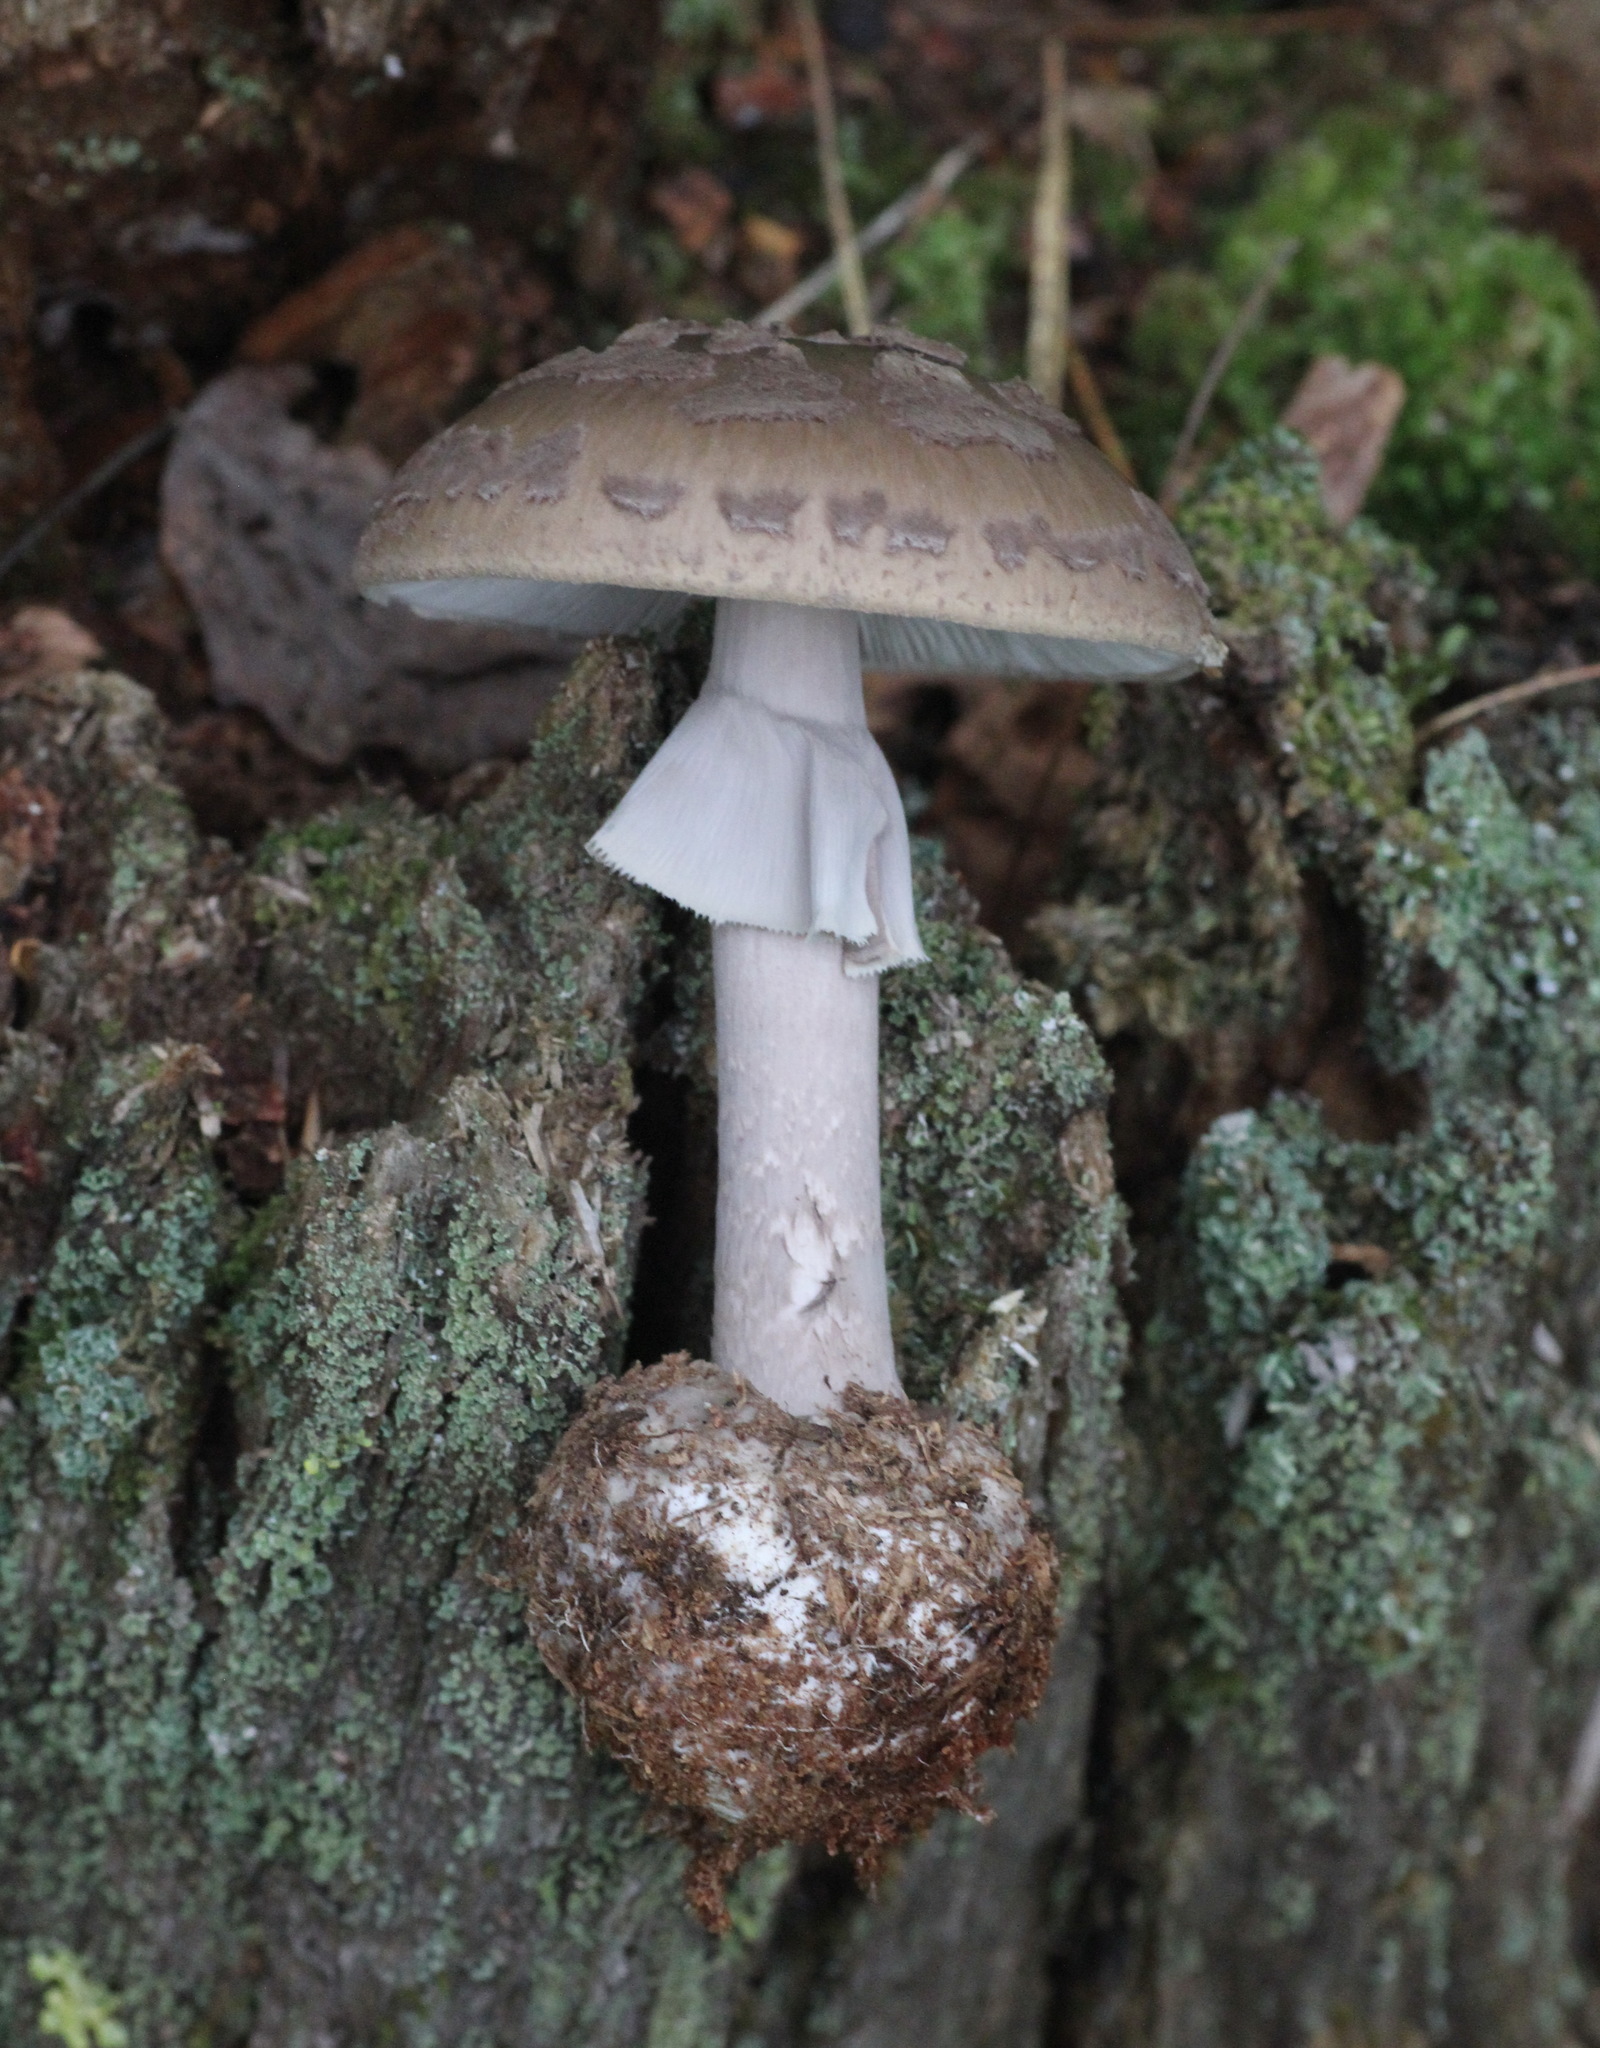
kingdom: Fungi
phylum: Basidiomycota
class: Agaricomycetes
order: Agaricales
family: Amanitaceae
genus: Amanita
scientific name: Amanita porphyria
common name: Grey veiled amanita
